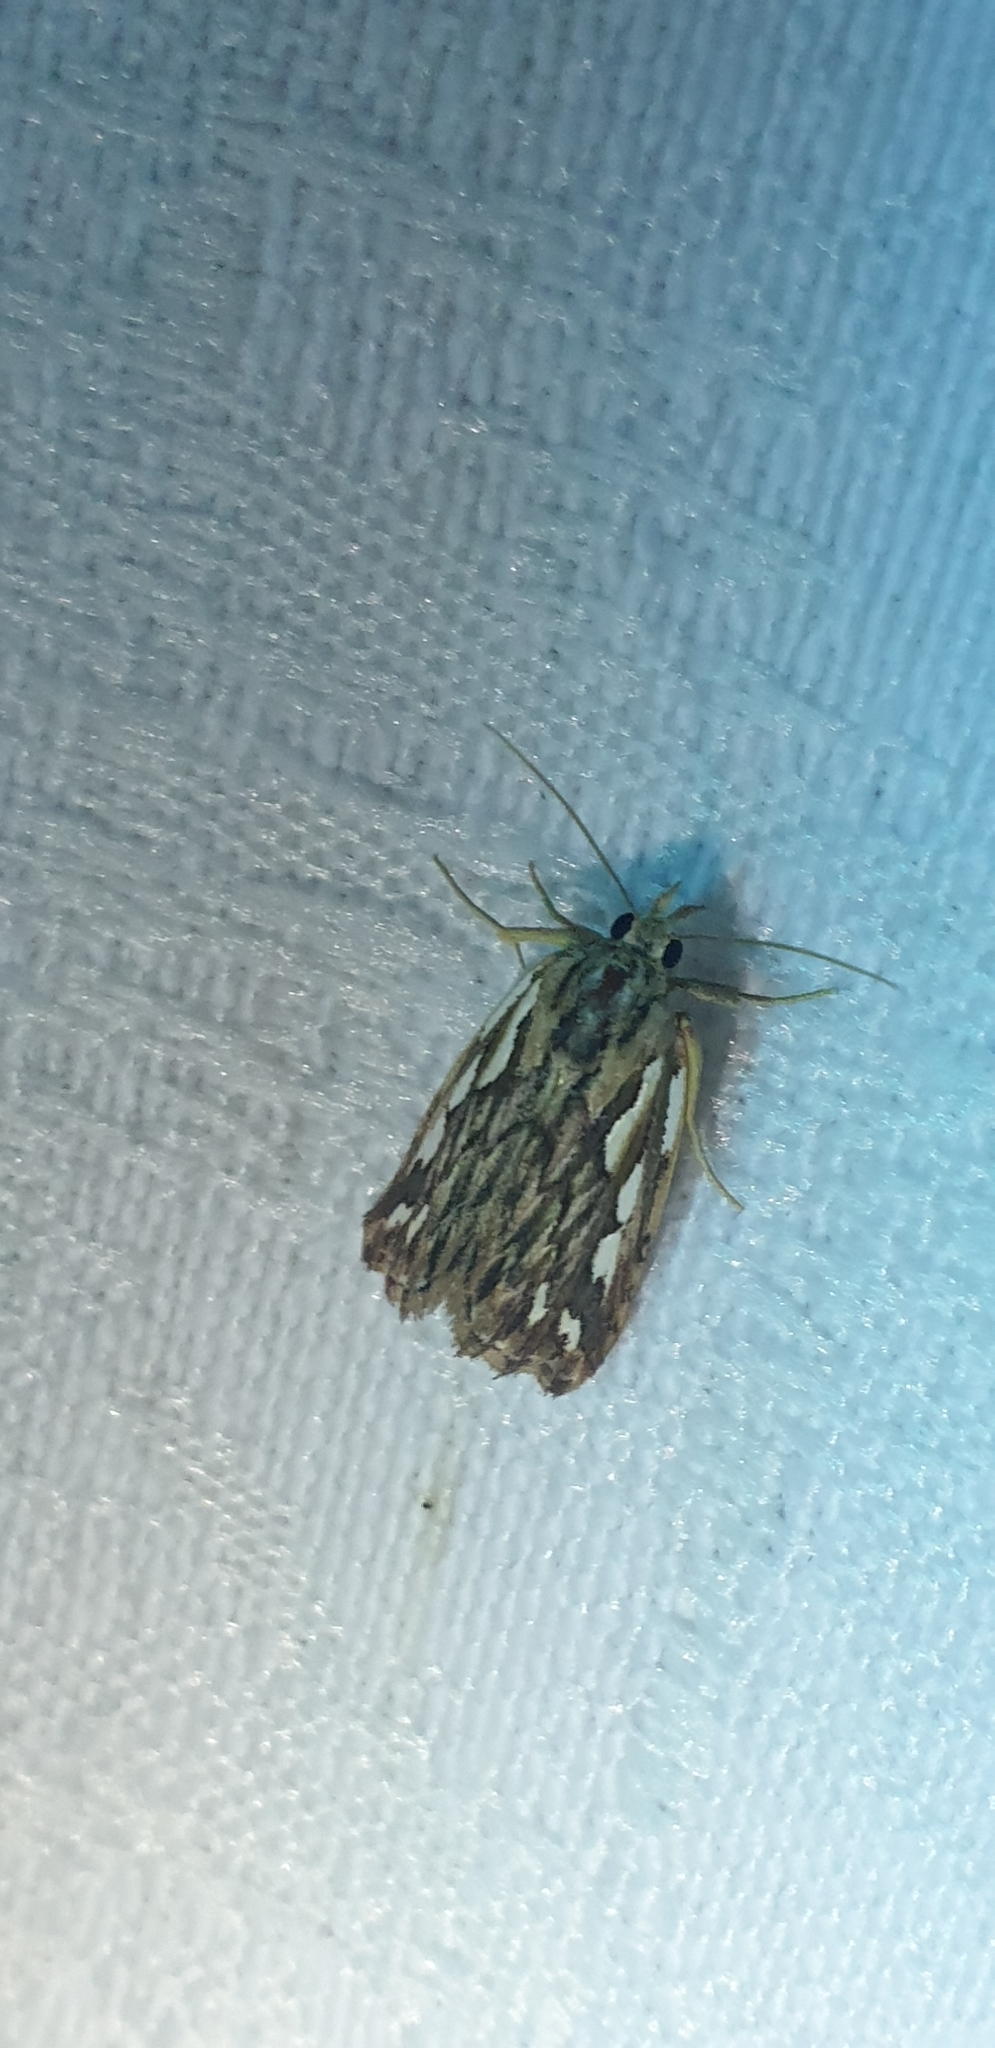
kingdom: Animalia
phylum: Arthropoda
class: Insecta
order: Lepidoptera
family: Erebidae
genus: Meyrickella
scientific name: Meyrickella torquesauria
